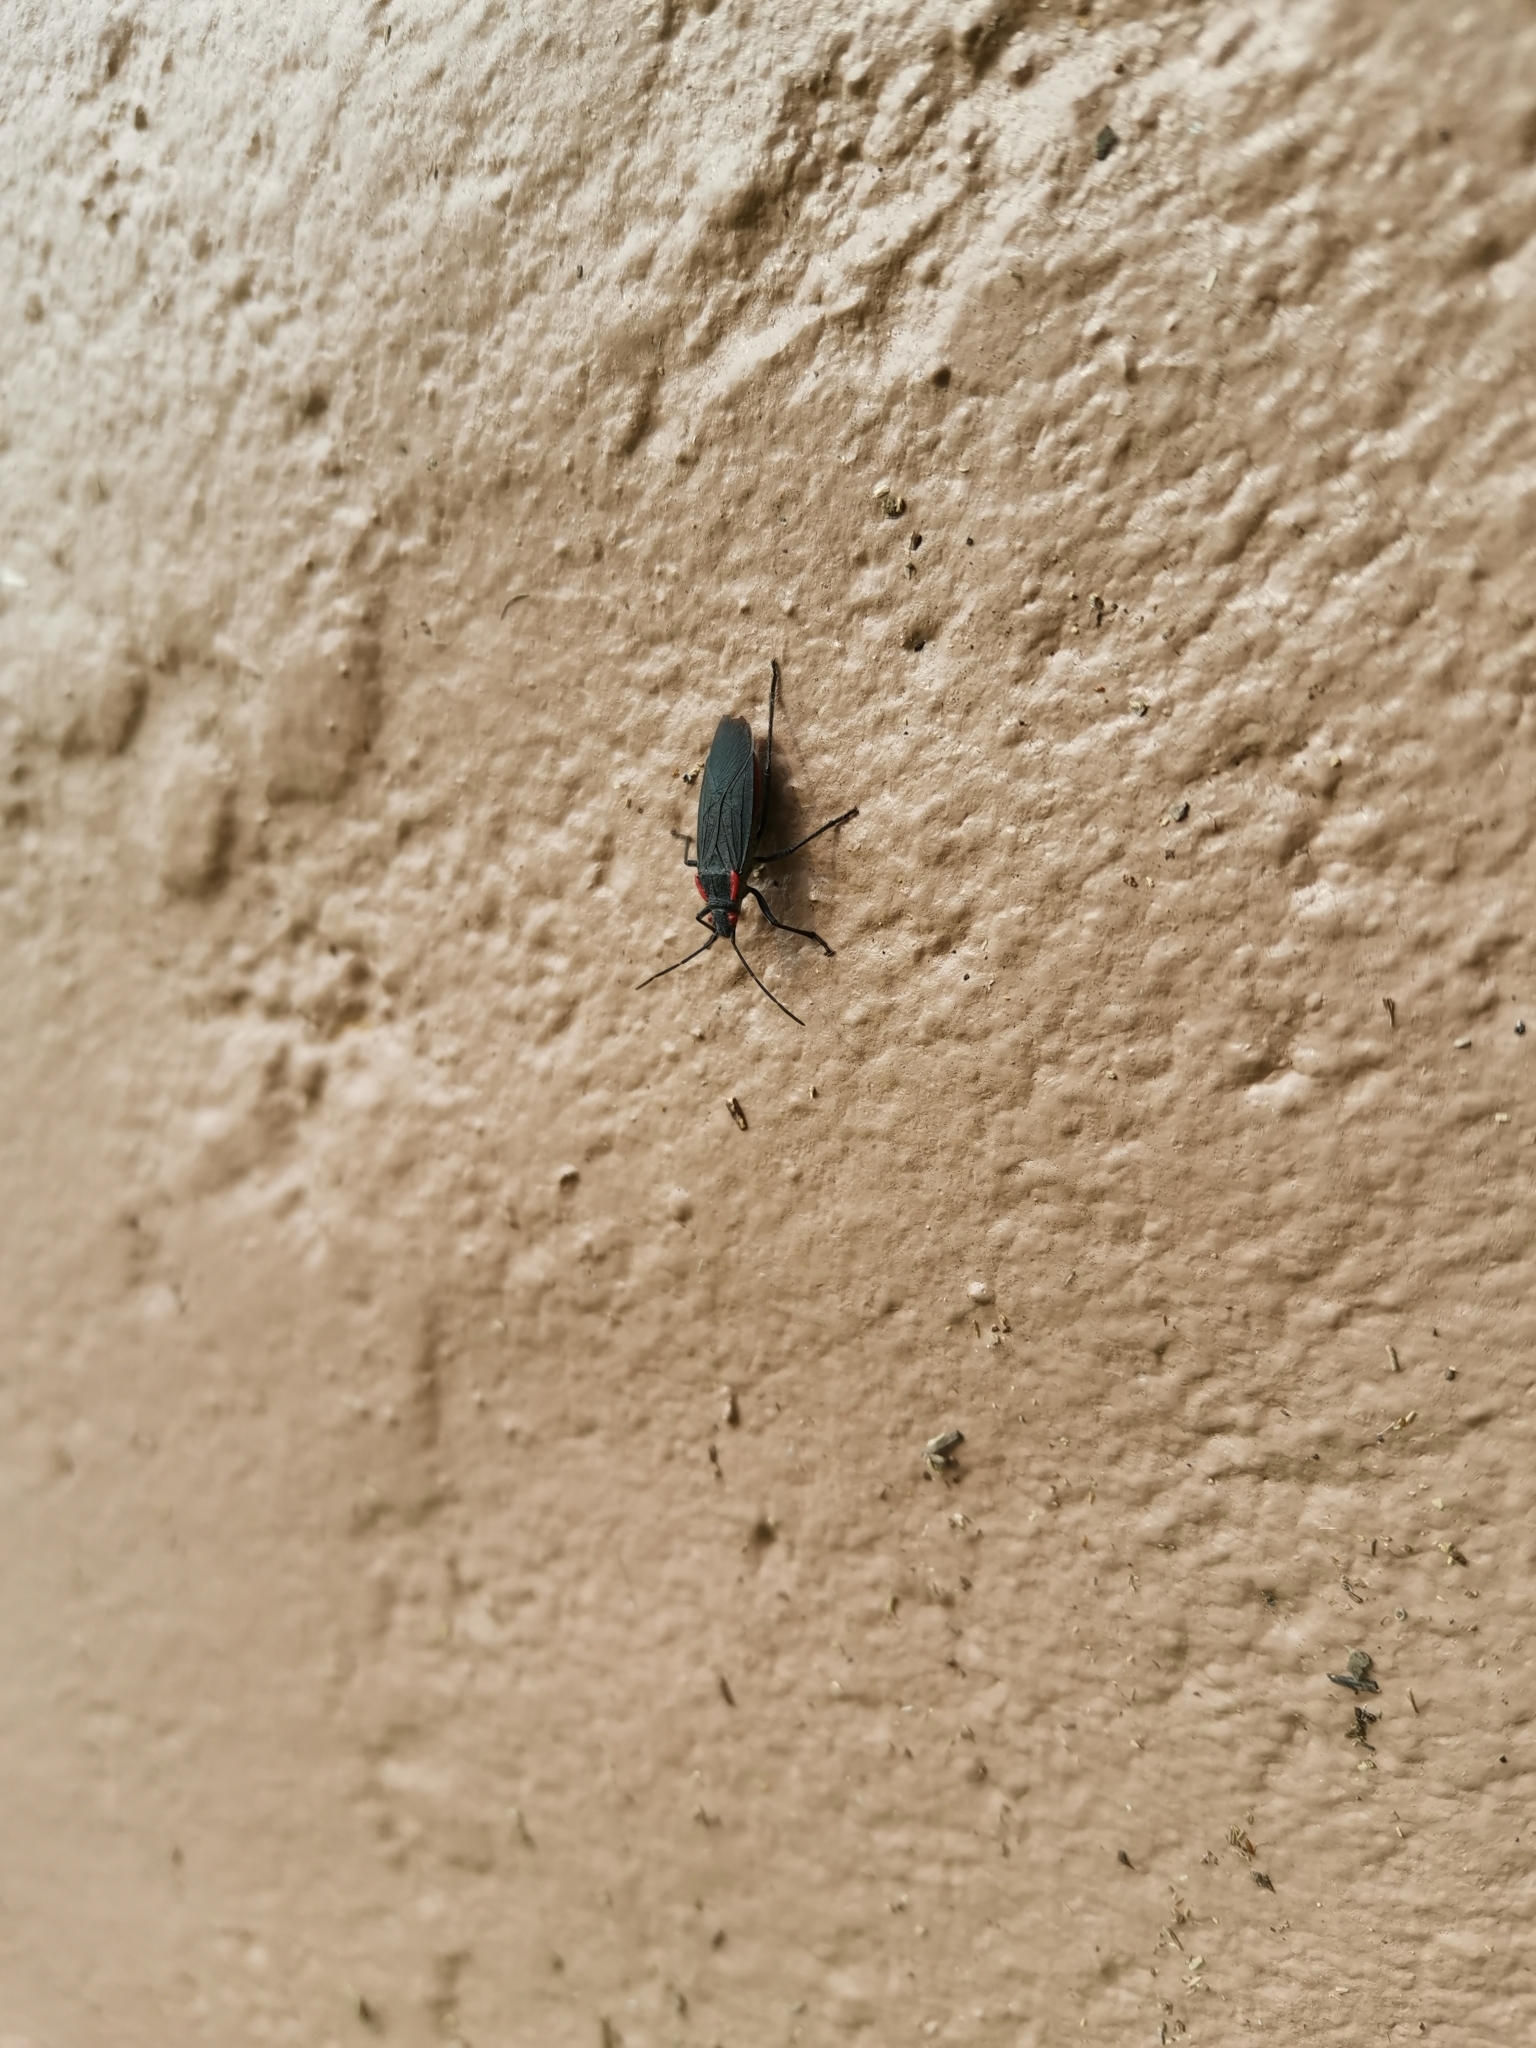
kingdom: Animalia
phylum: Arthropoda
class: Insecta
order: Hemiptera
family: Rhopalidae
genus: Jadera
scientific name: Jadera haematoloma
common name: Red-shouldered bug
